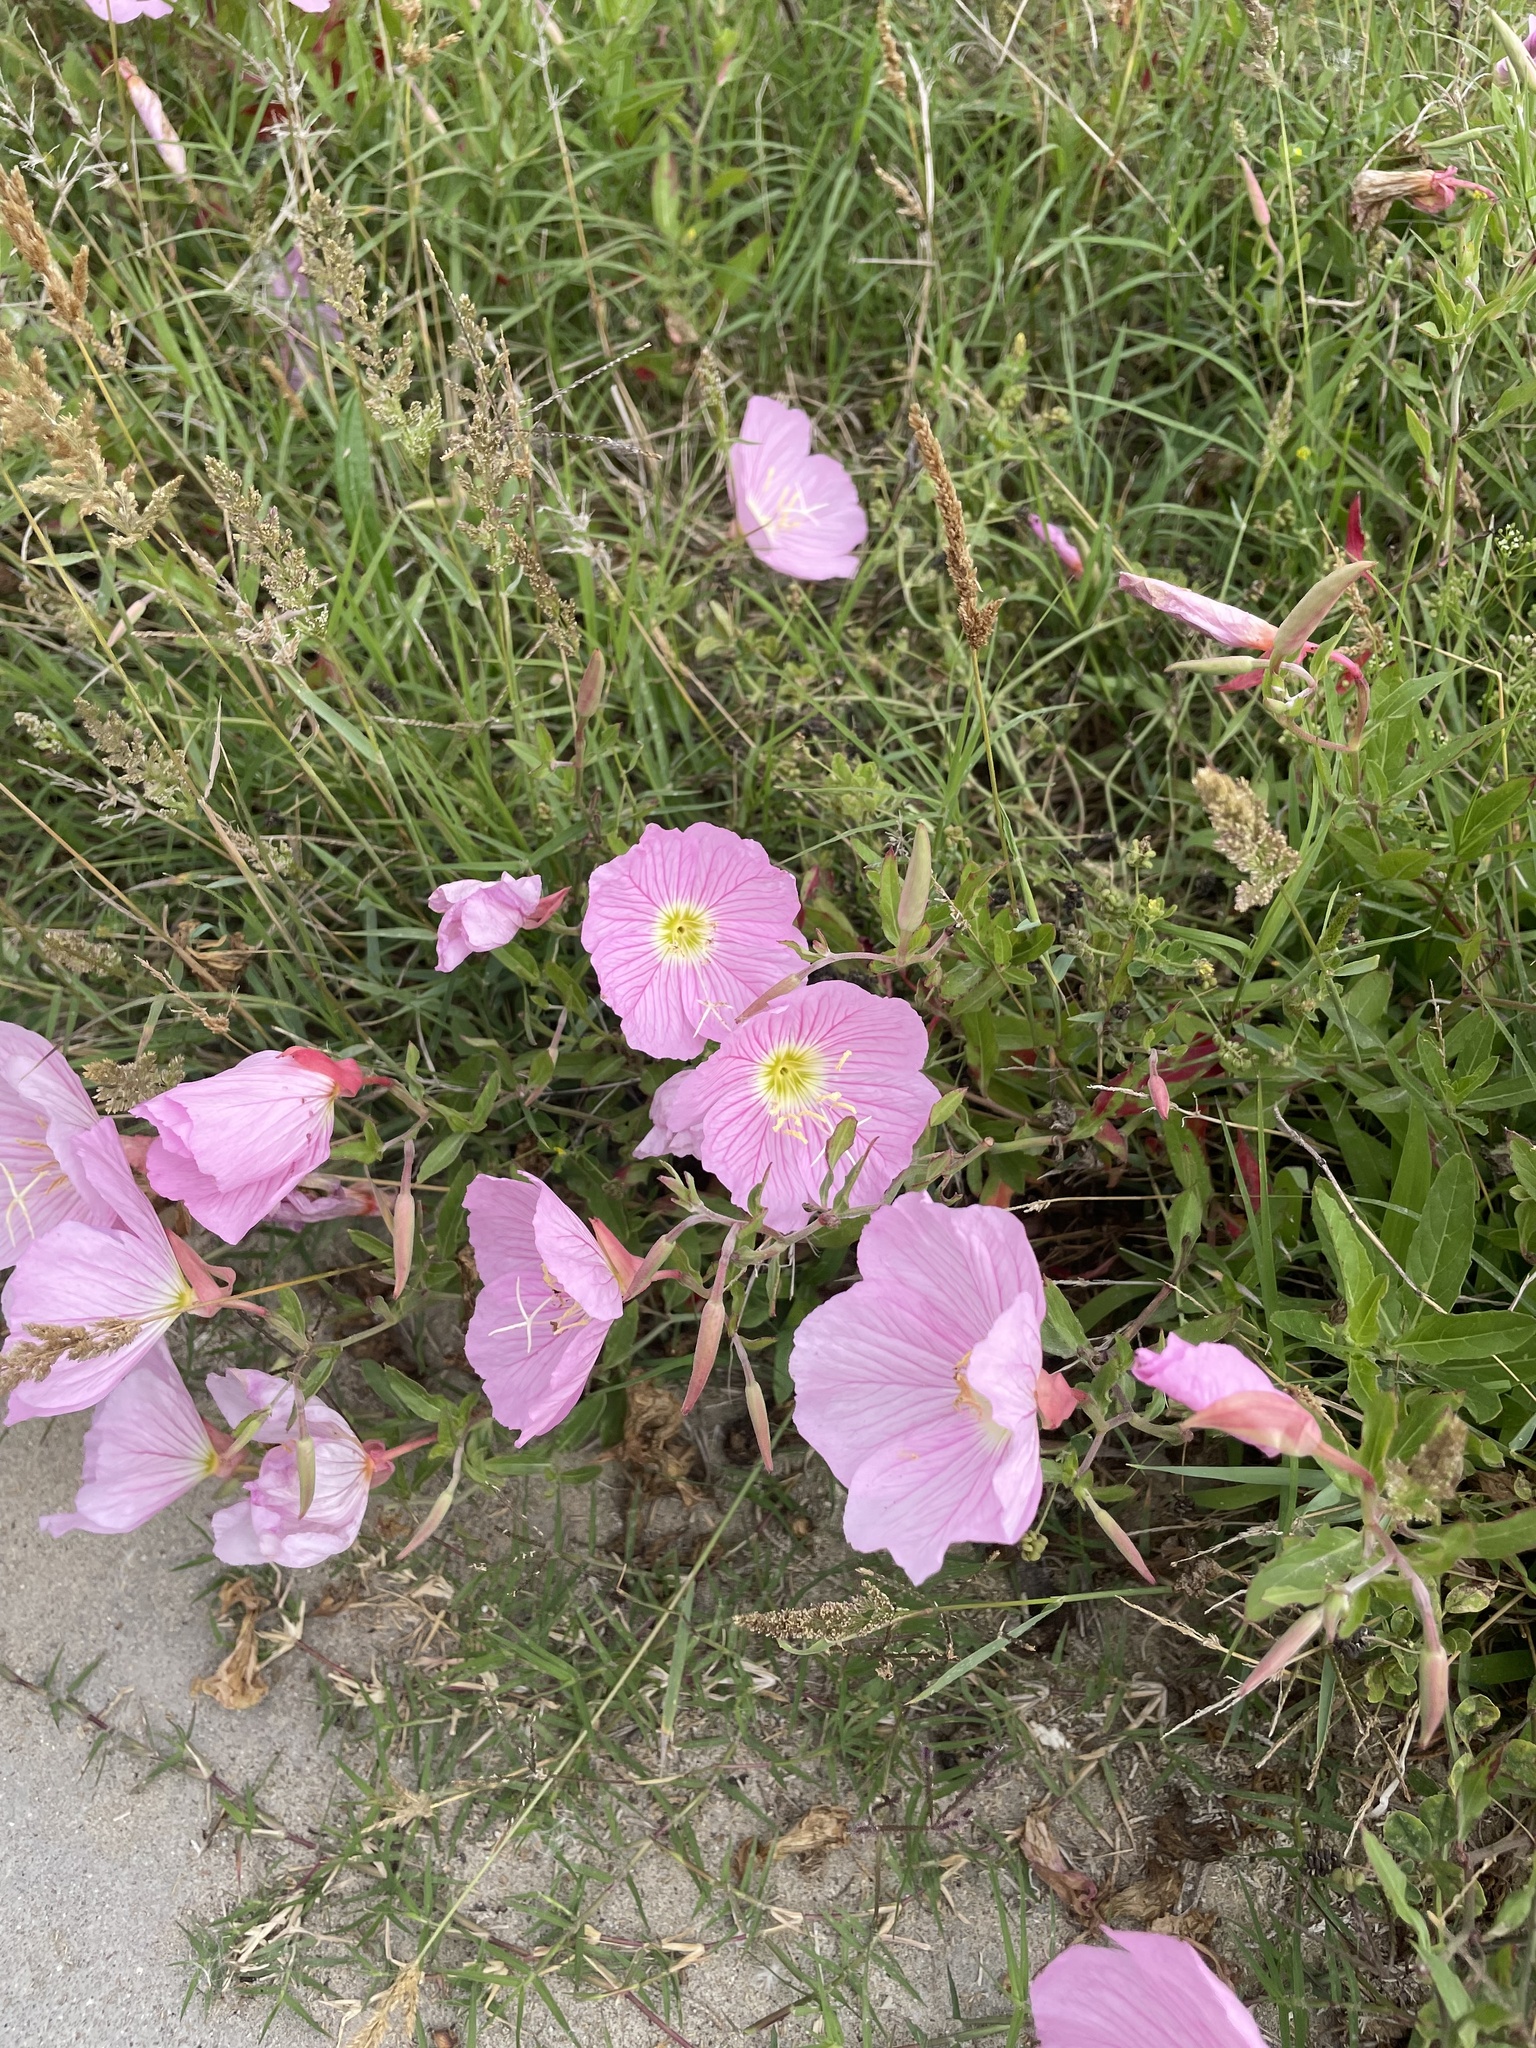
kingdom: Plantae
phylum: Tracheophyta
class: Magnoliopsida
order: Myrtales
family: Onagraceae
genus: Oenothera
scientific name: Oenothera speciosa
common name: White evening-primrose
